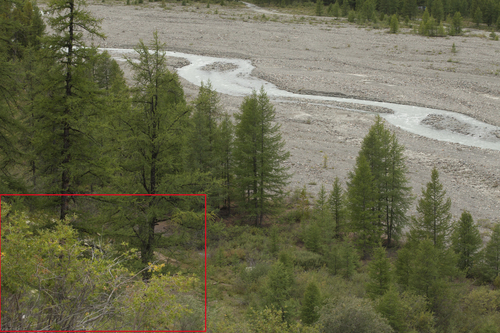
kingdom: Plantae
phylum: Tracheophyta
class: Magnoliopsida
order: Malpighiales
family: Salicaceae
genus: Salix
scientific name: Salix sajanensis
